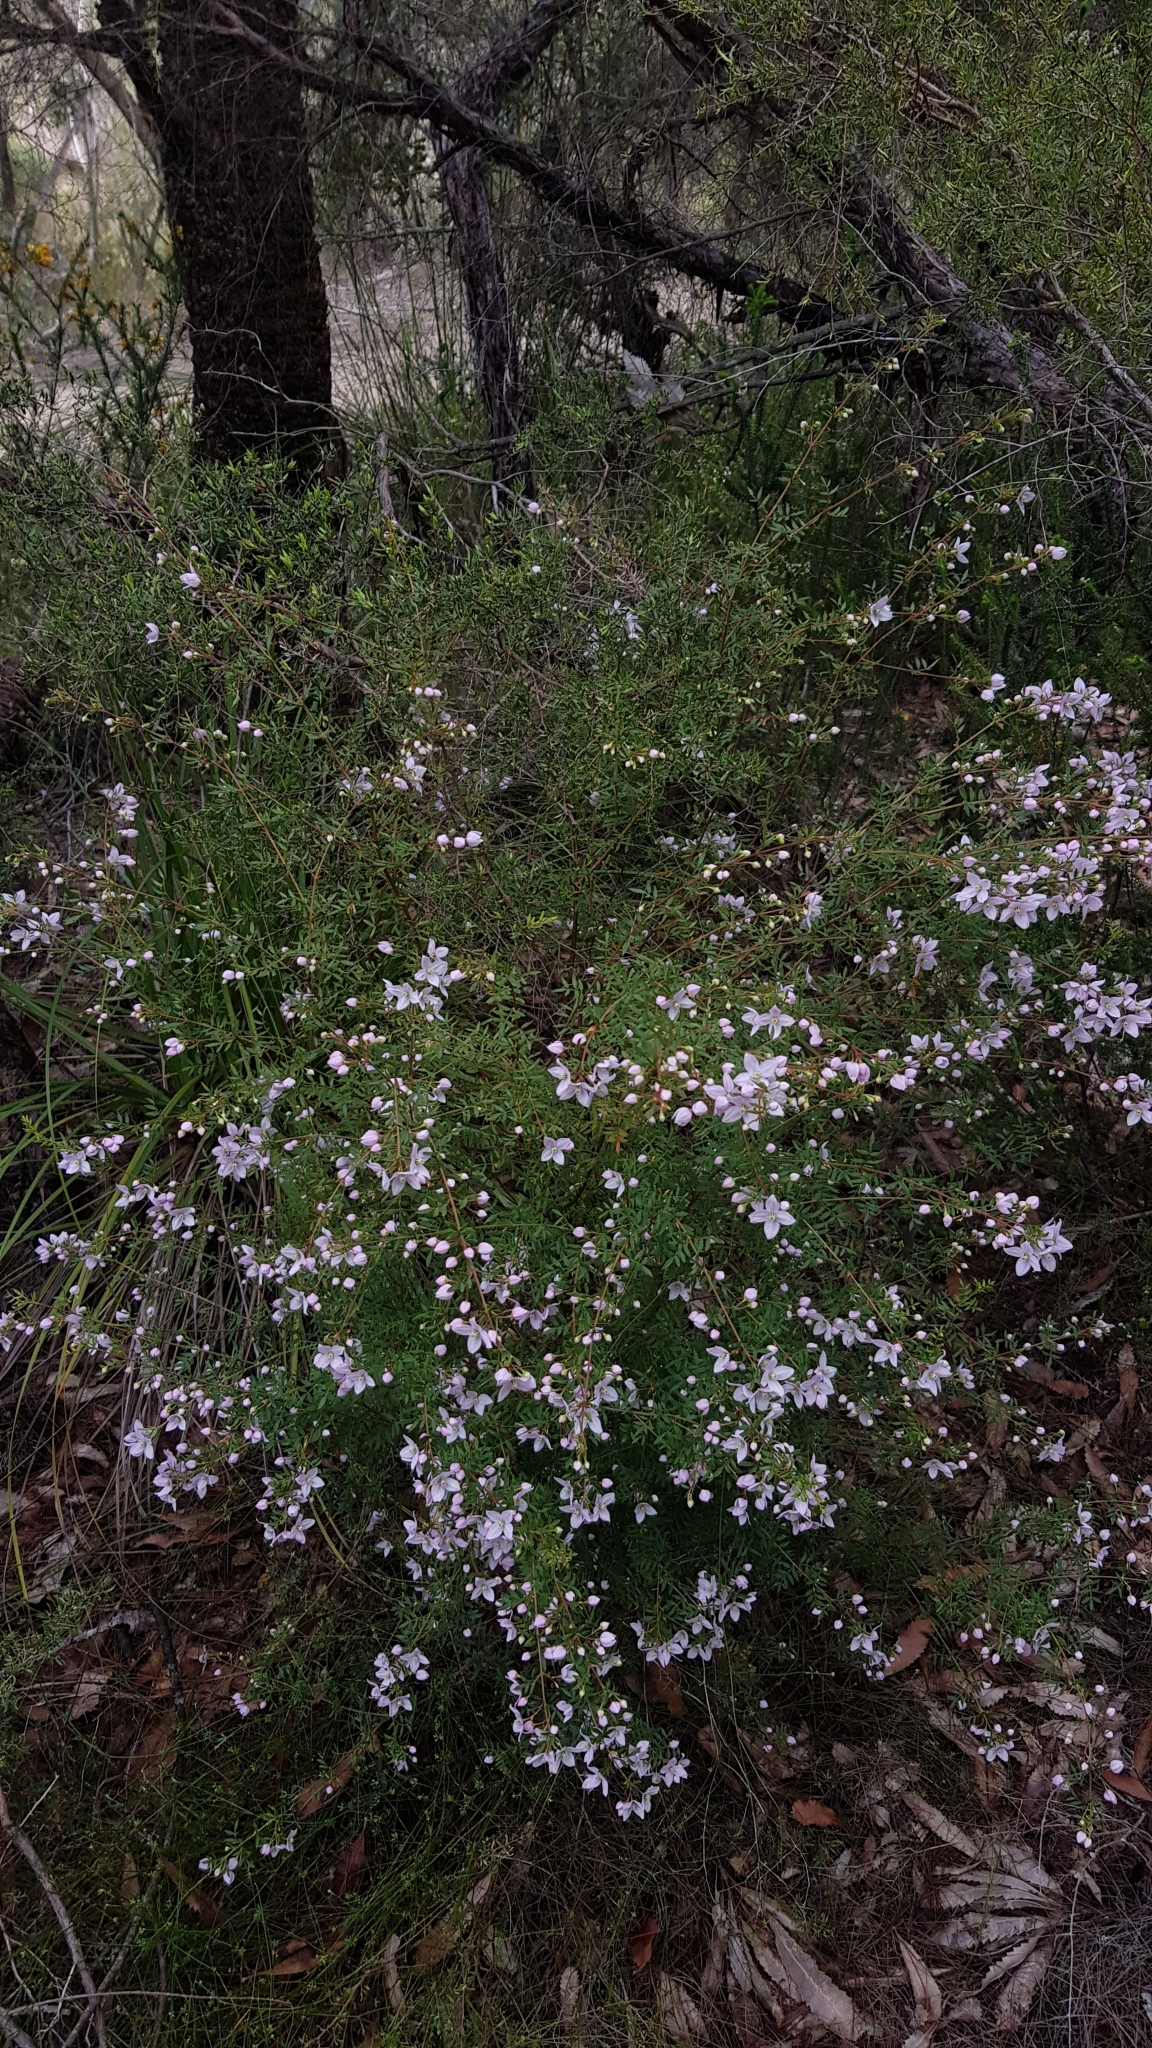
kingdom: Plantae
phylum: Tracheophyta
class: Magnoliopsida
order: Sapindales
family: Rutaceae
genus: Boronia
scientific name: Boronia floribunda
